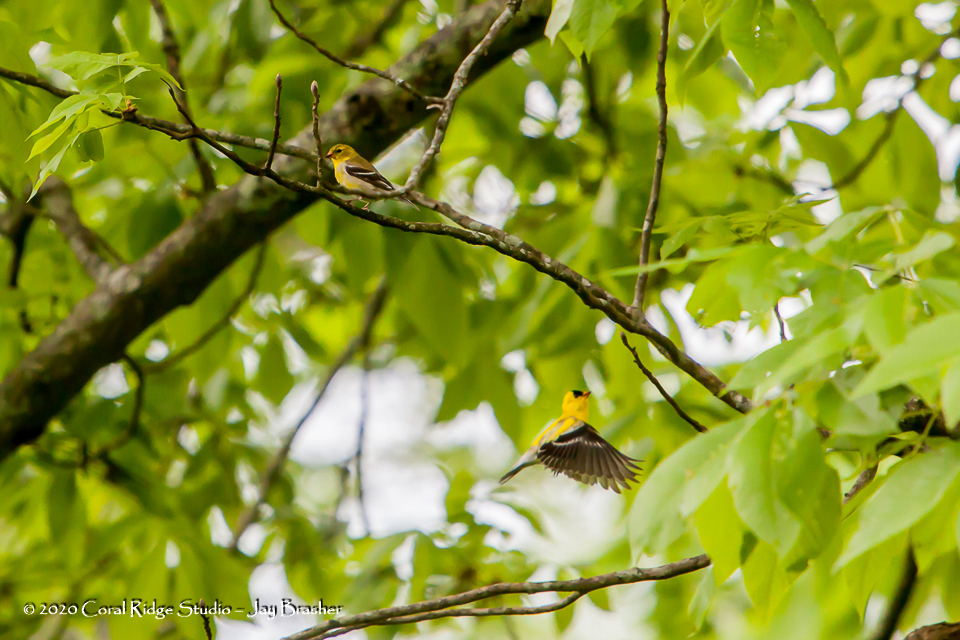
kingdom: Animalia
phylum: Chordata
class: Aves
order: Passeriformes
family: Fringillidae
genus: Spinus
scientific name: Spinus tristis
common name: American goldfinch
